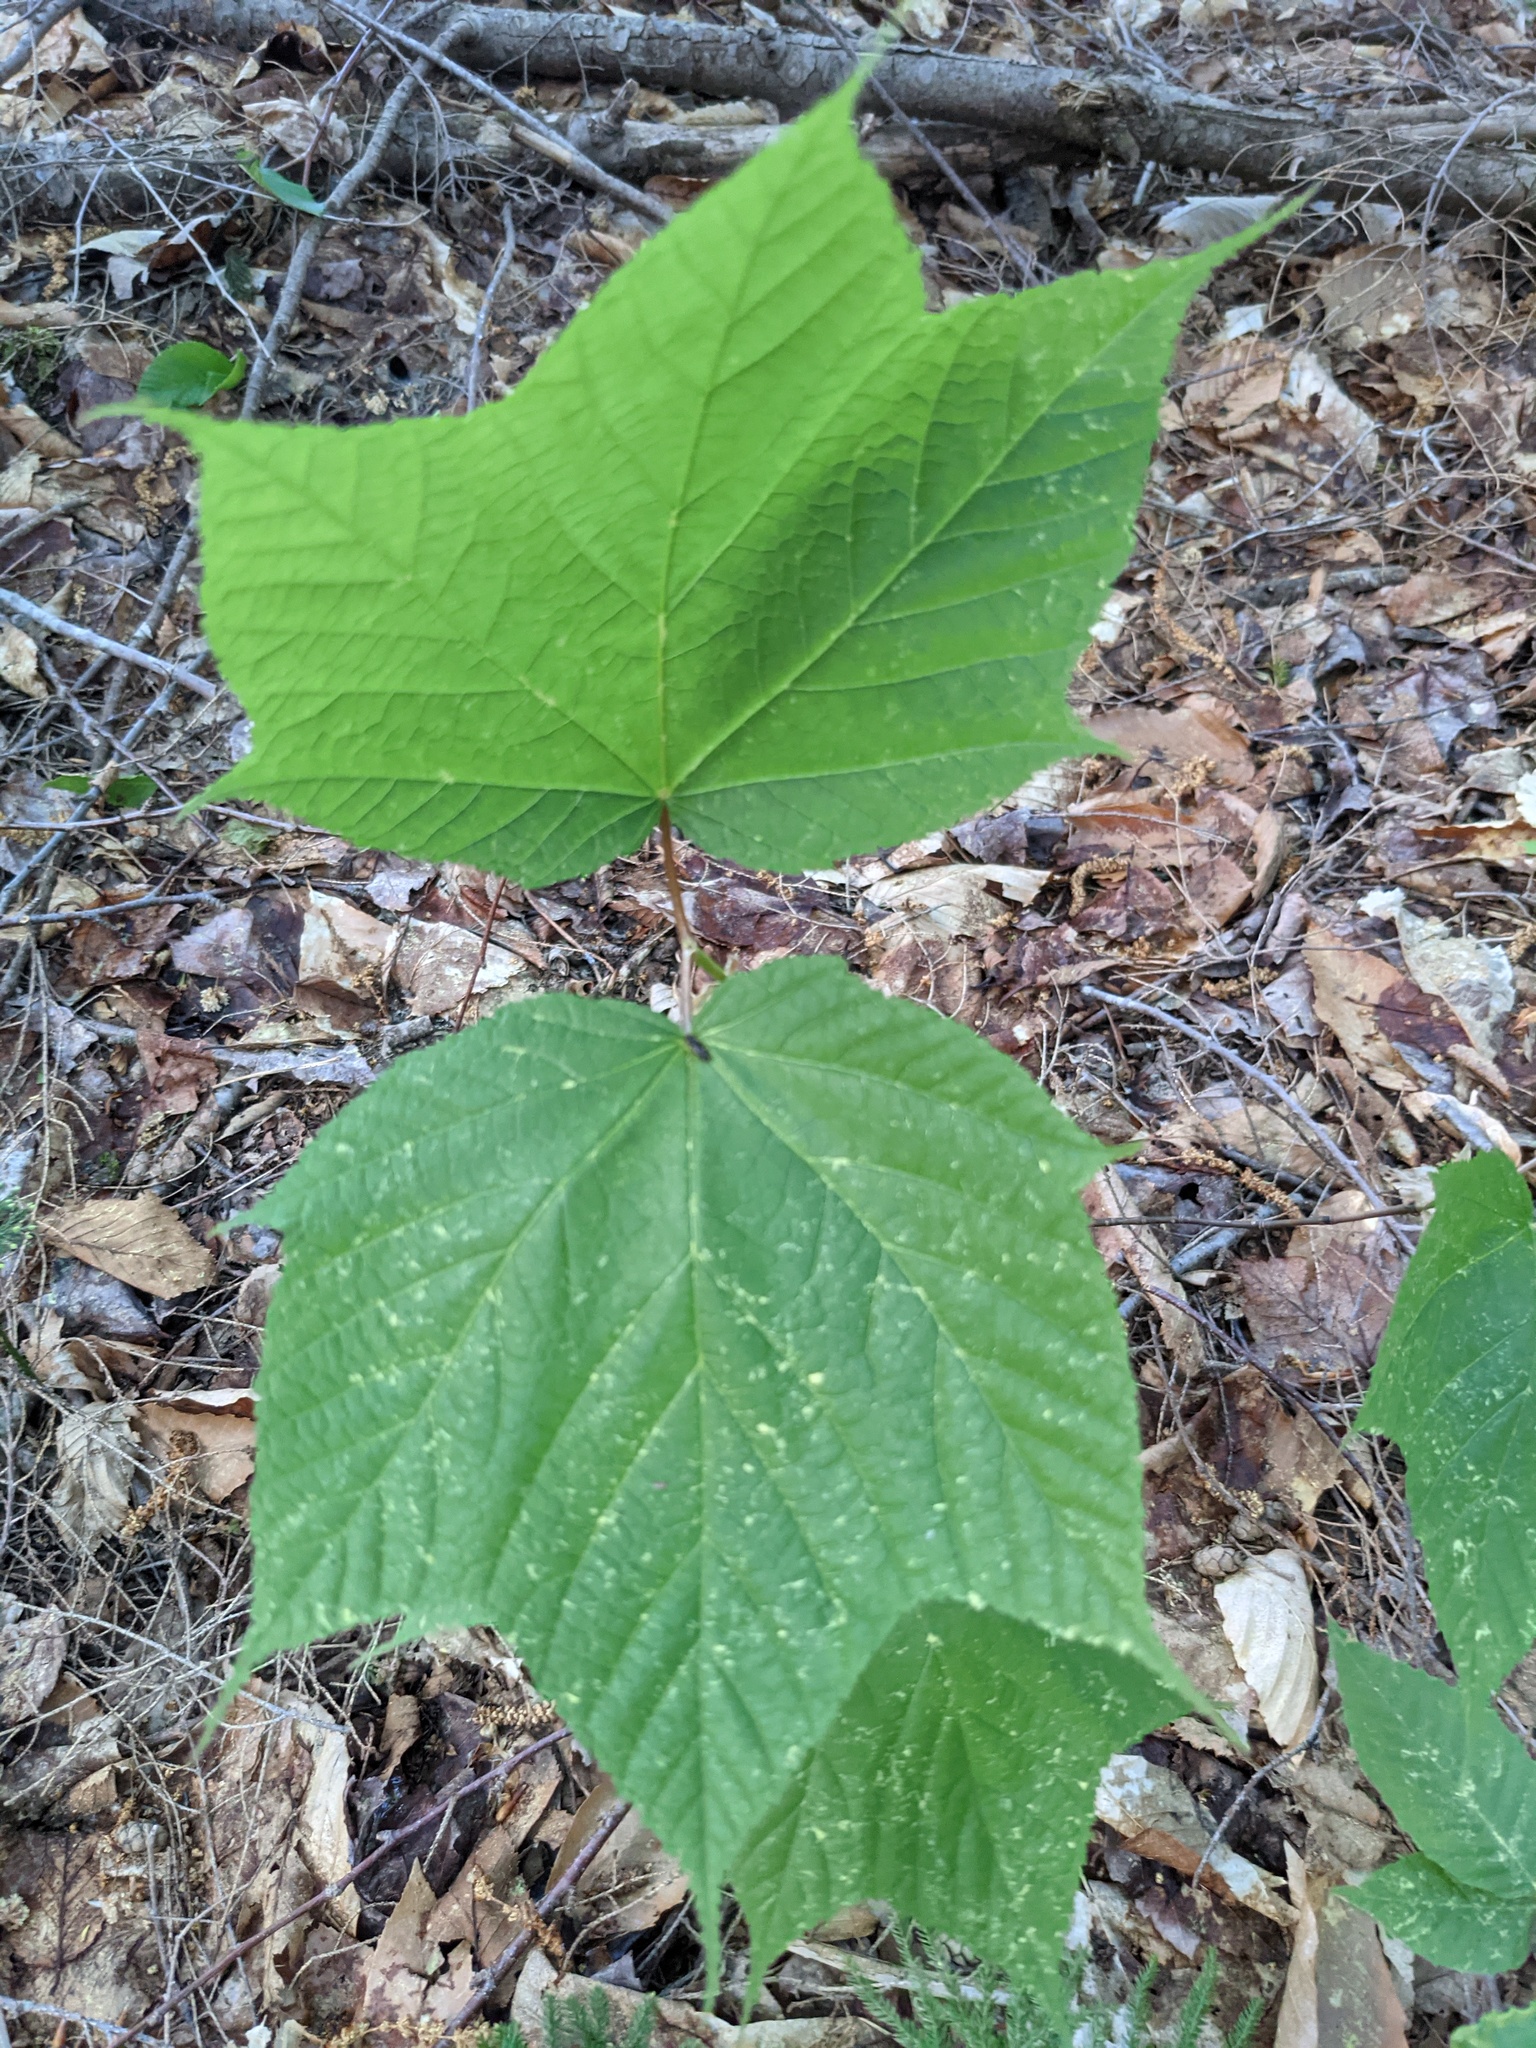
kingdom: Plantae
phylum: Tracheophyta
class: Magnoliopsida
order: Sapindales
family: Sapindaceae
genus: Acer
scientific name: Acer pensylvanicum
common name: Moosewood
